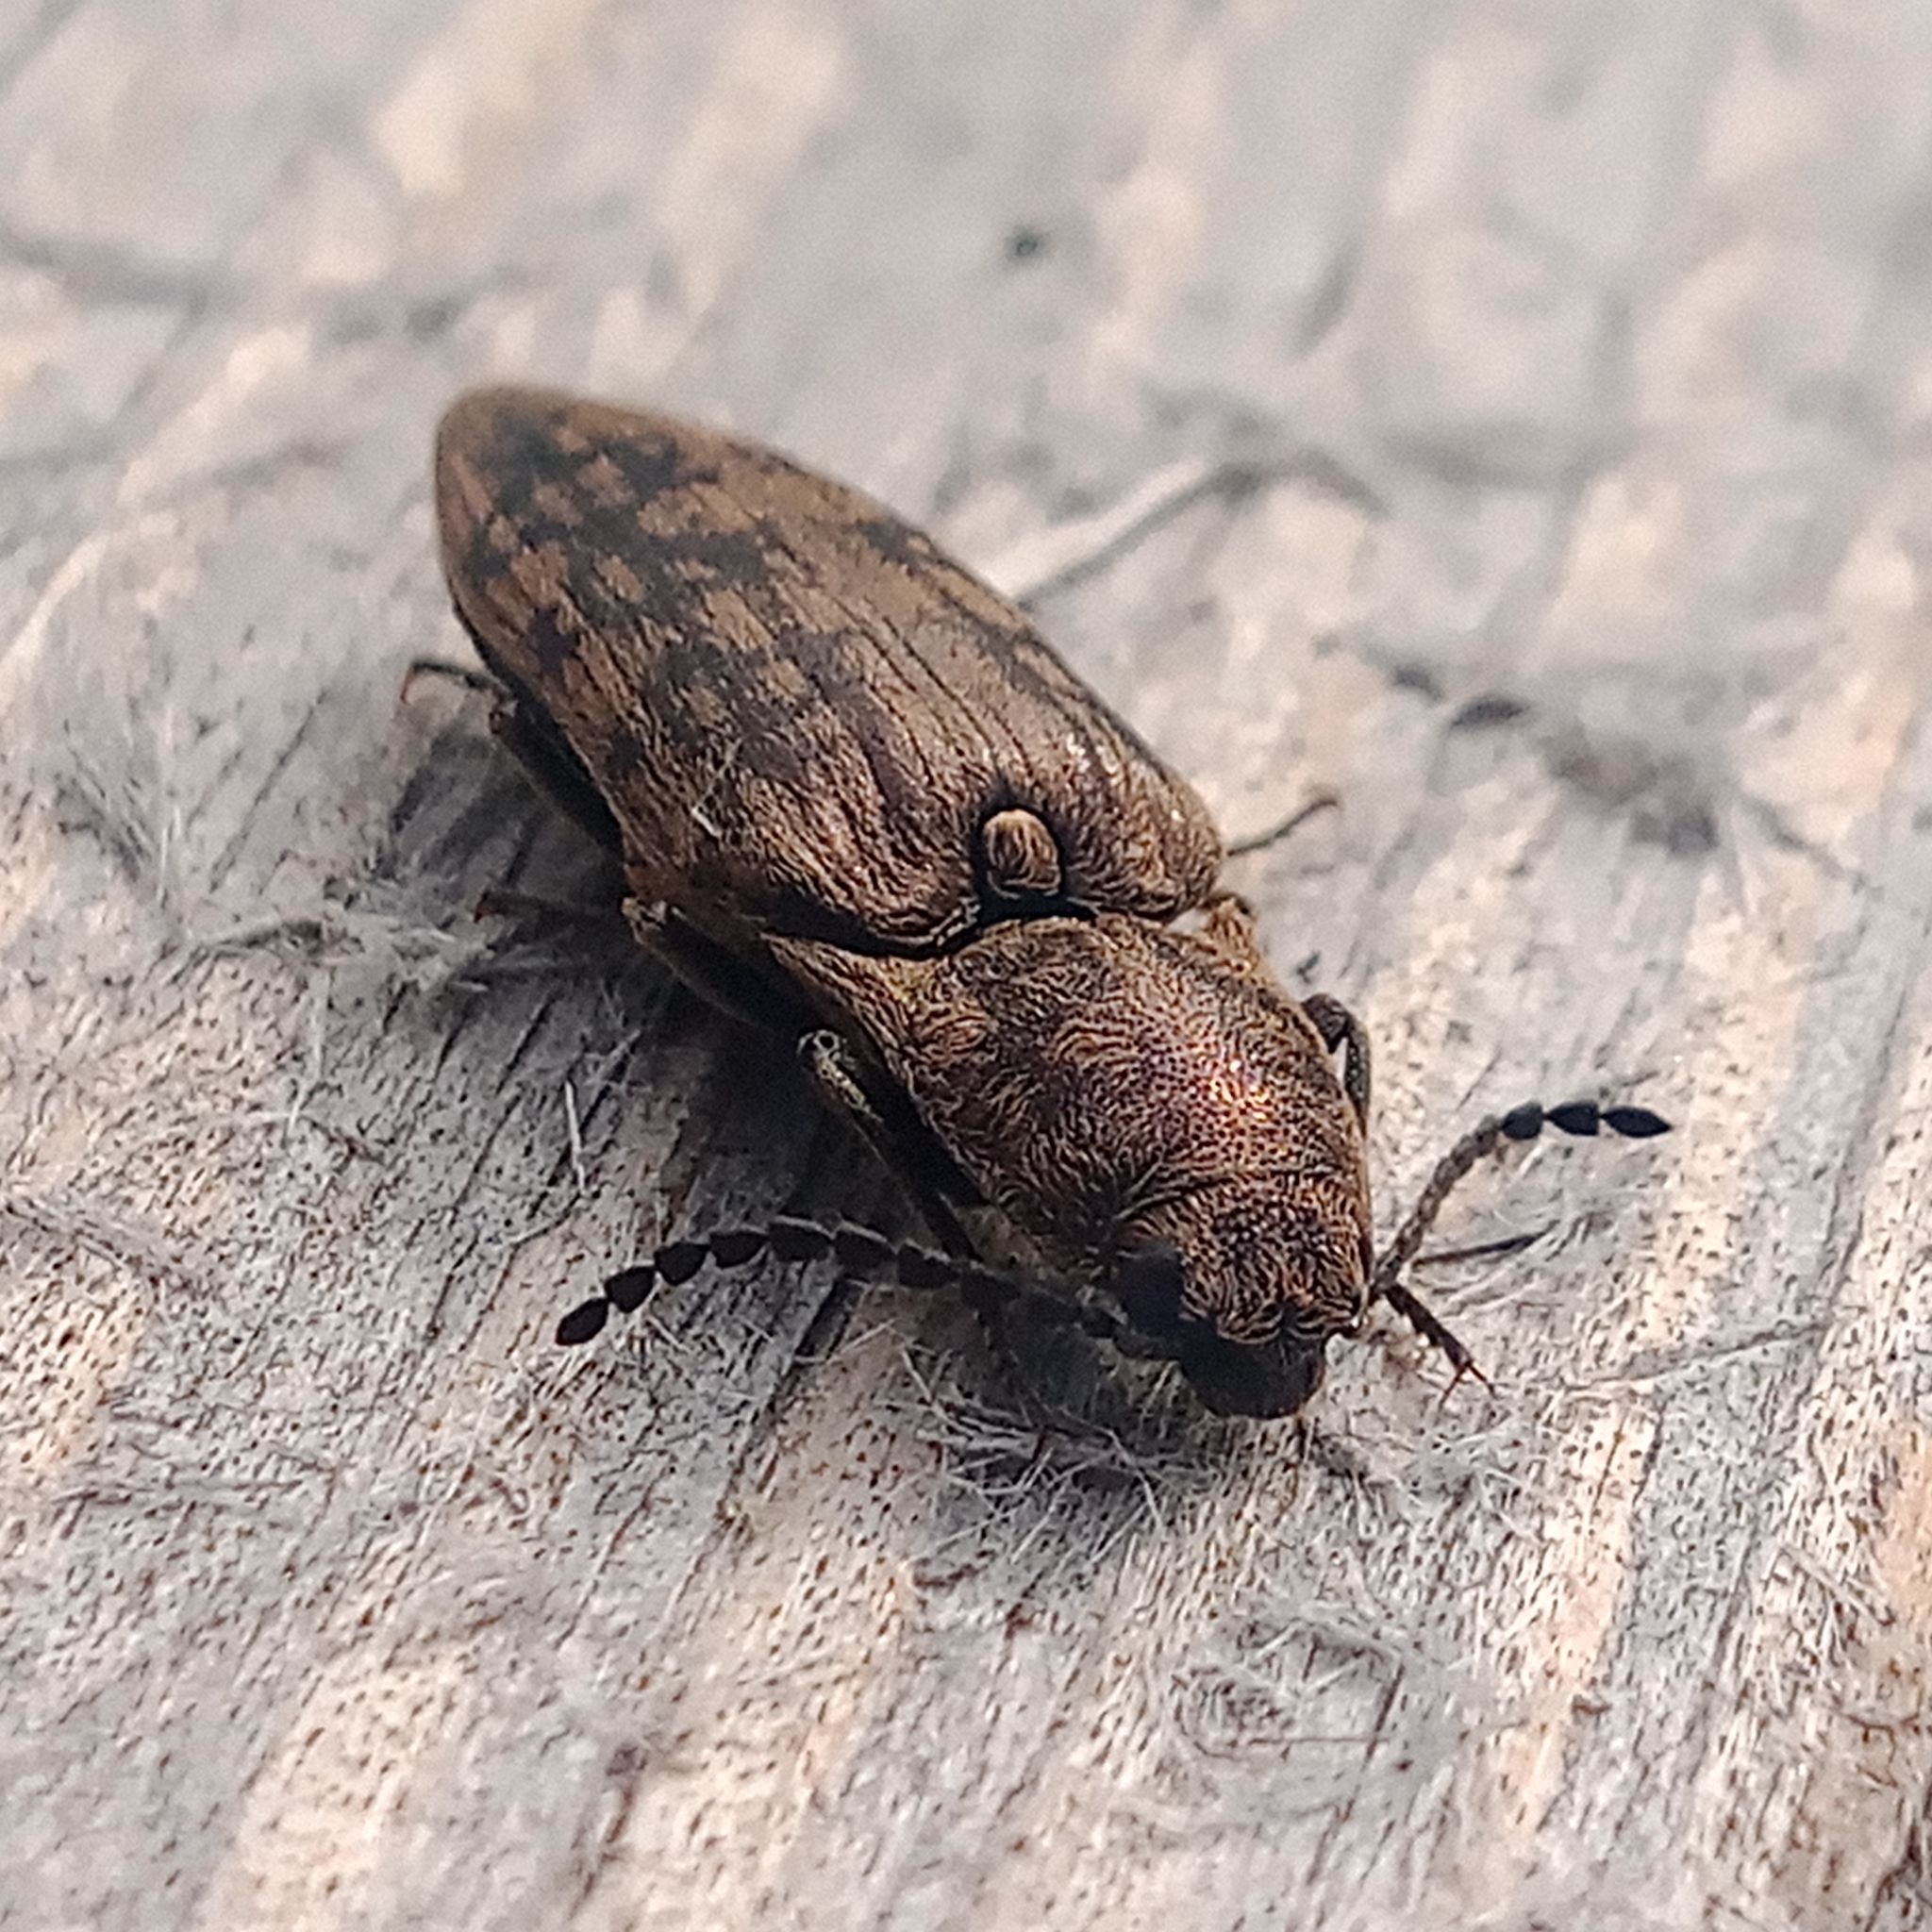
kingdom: Animalia
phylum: Arthropoda
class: Insecta
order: Coleoptera
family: Elateridae
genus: Actenicerus
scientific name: Actenicerus sjaelandicus
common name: Marsh click beetle
